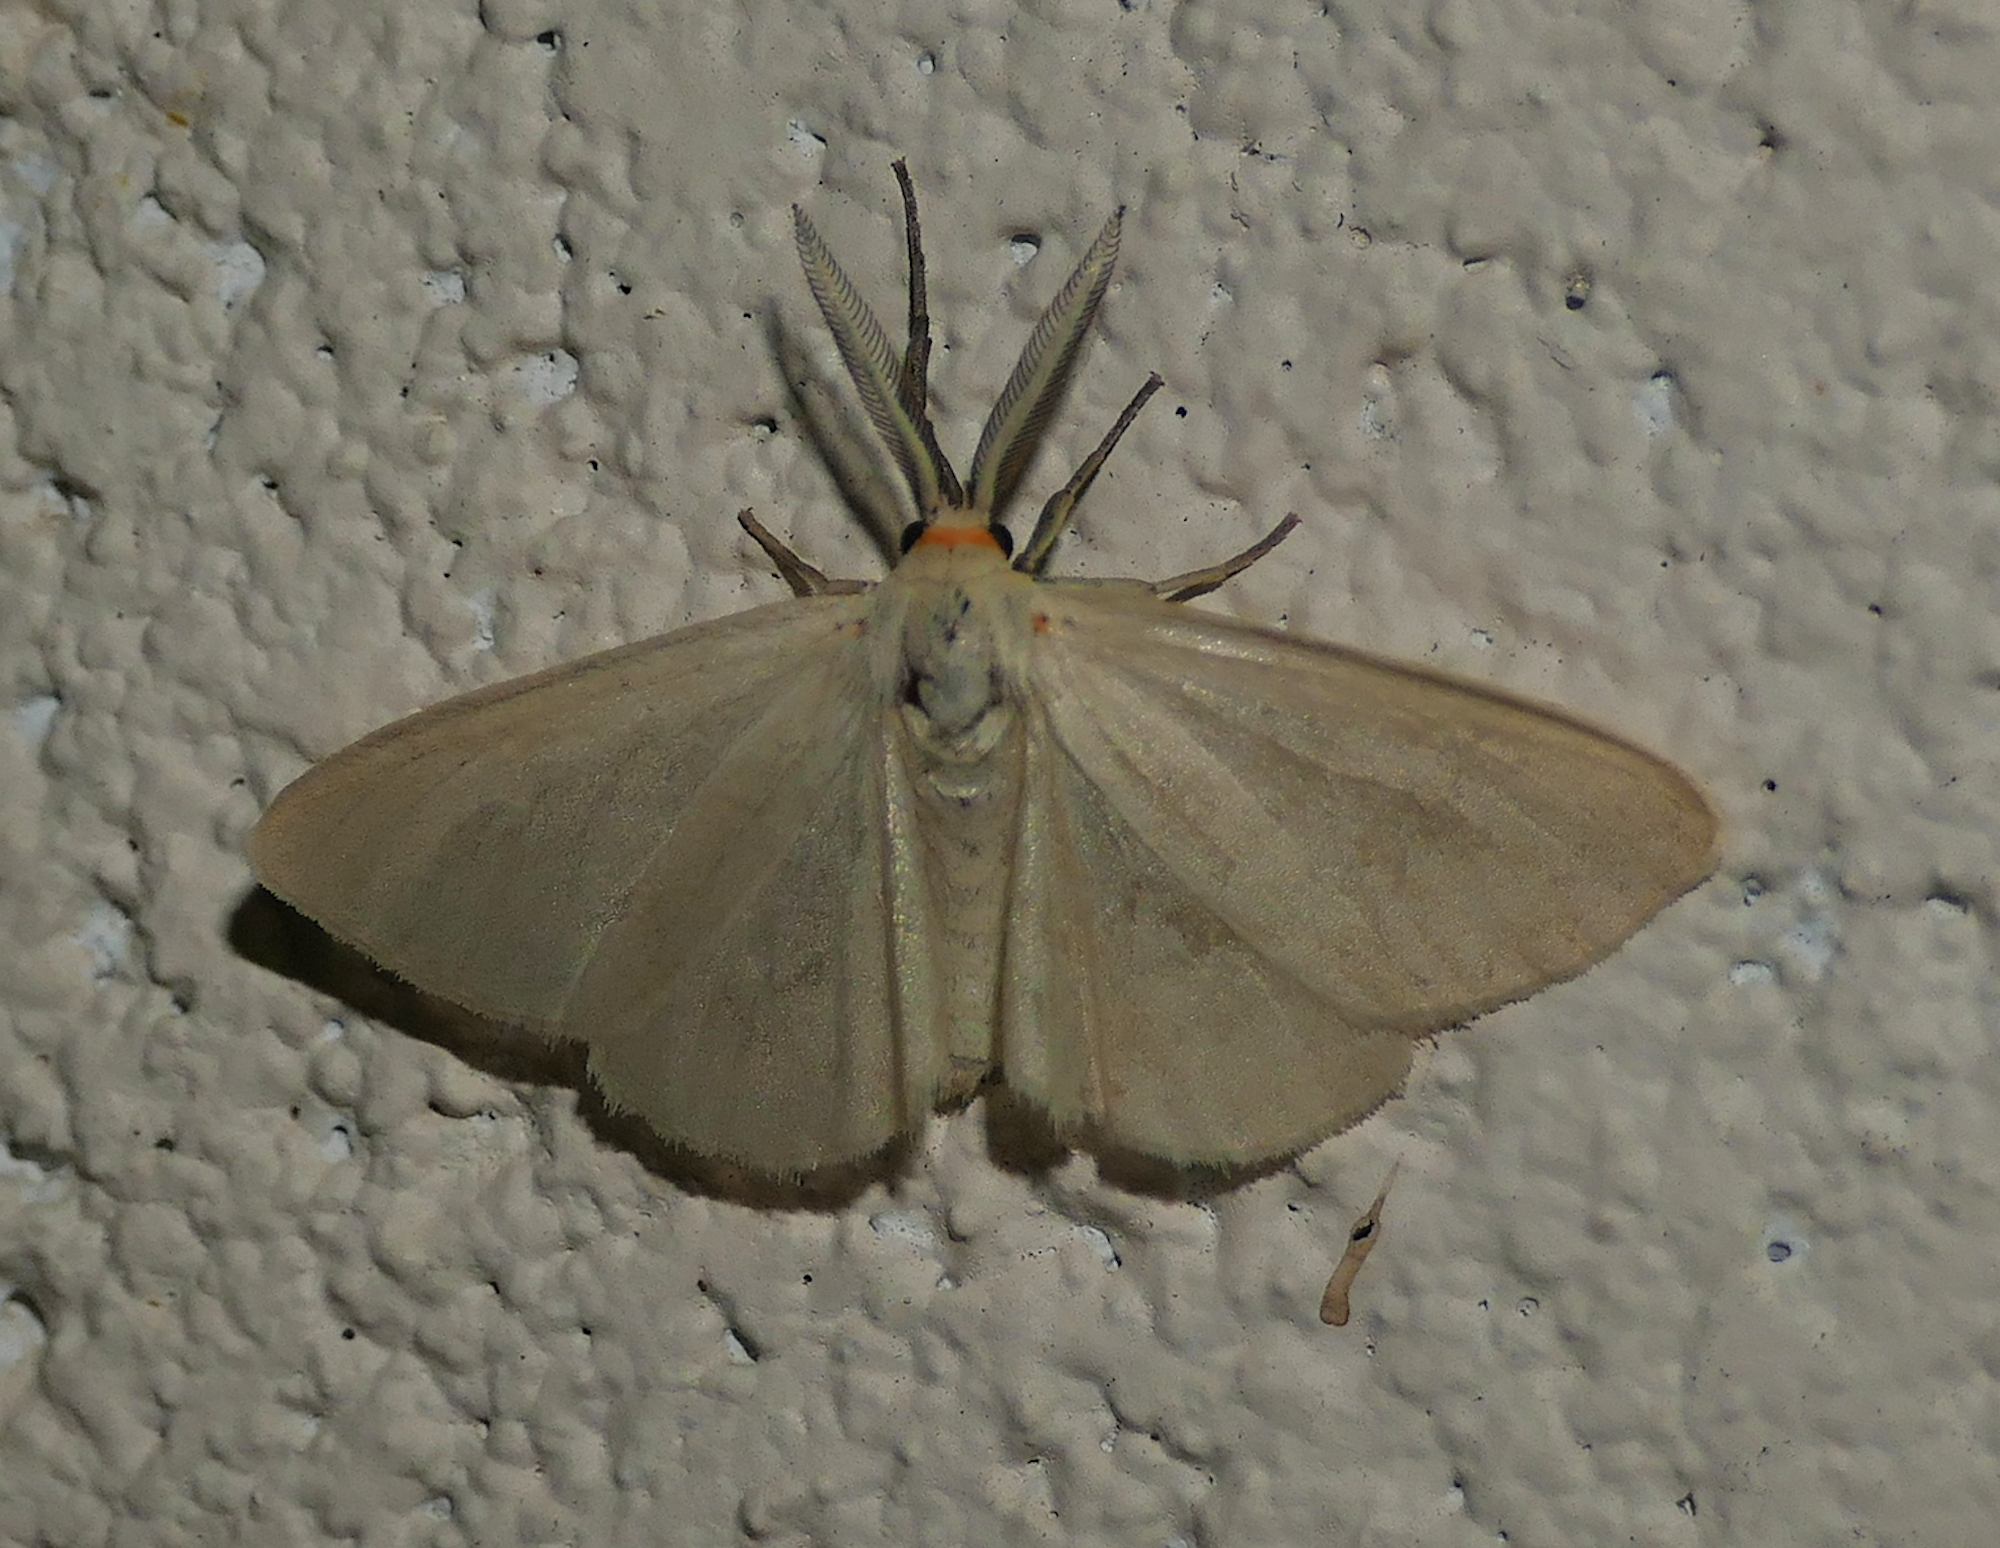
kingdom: Animalia
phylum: Arthropoda
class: Insecta
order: Lepidoptera
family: Erebidae
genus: Neoplynes
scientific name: Neoplynes eudora
